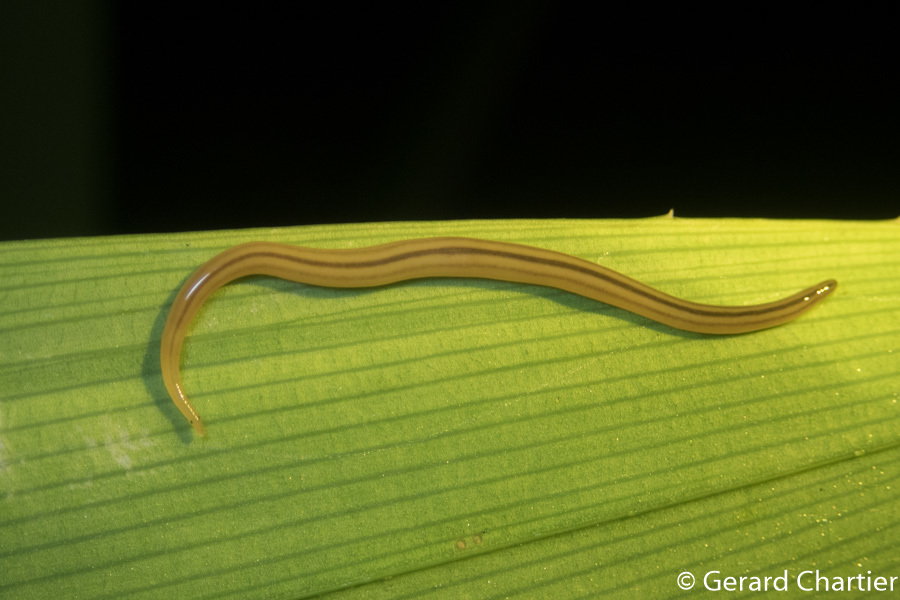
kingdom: Animalia
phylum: Platyhelminthes
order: Tricladida
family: Rhynchodemidae
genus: Desmorhynchus
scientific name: Desmorhynchus ochroleucus
